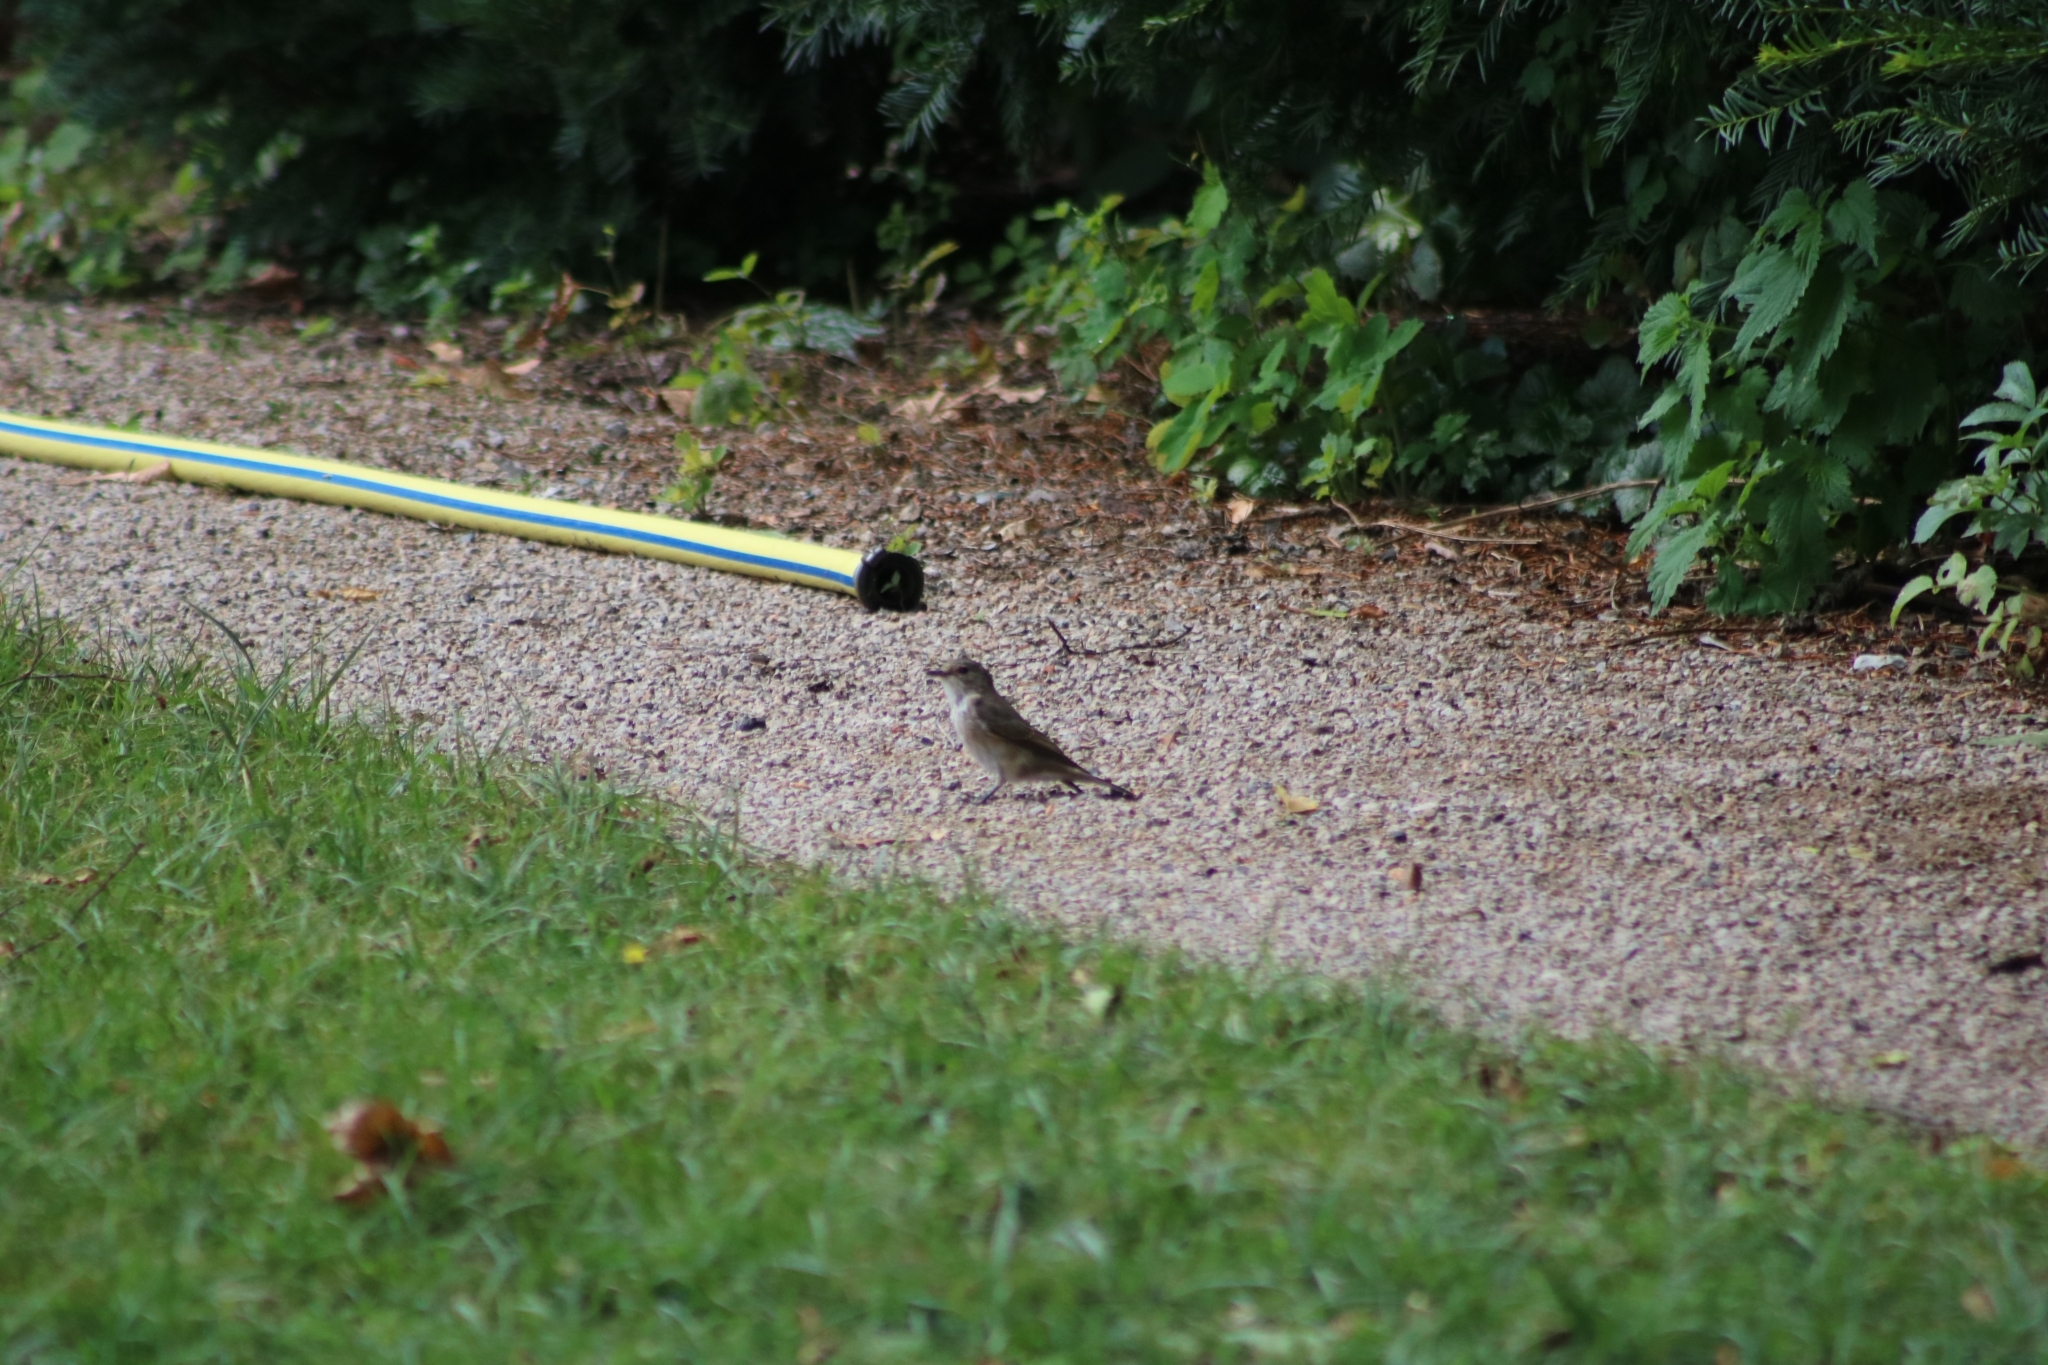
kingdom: Animalia
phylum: Chordata
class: Aves
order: Passeriformes
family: Muscicapidae
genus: Muscicapa
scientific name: Muscicapa striata
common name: Spotted flycatcher
